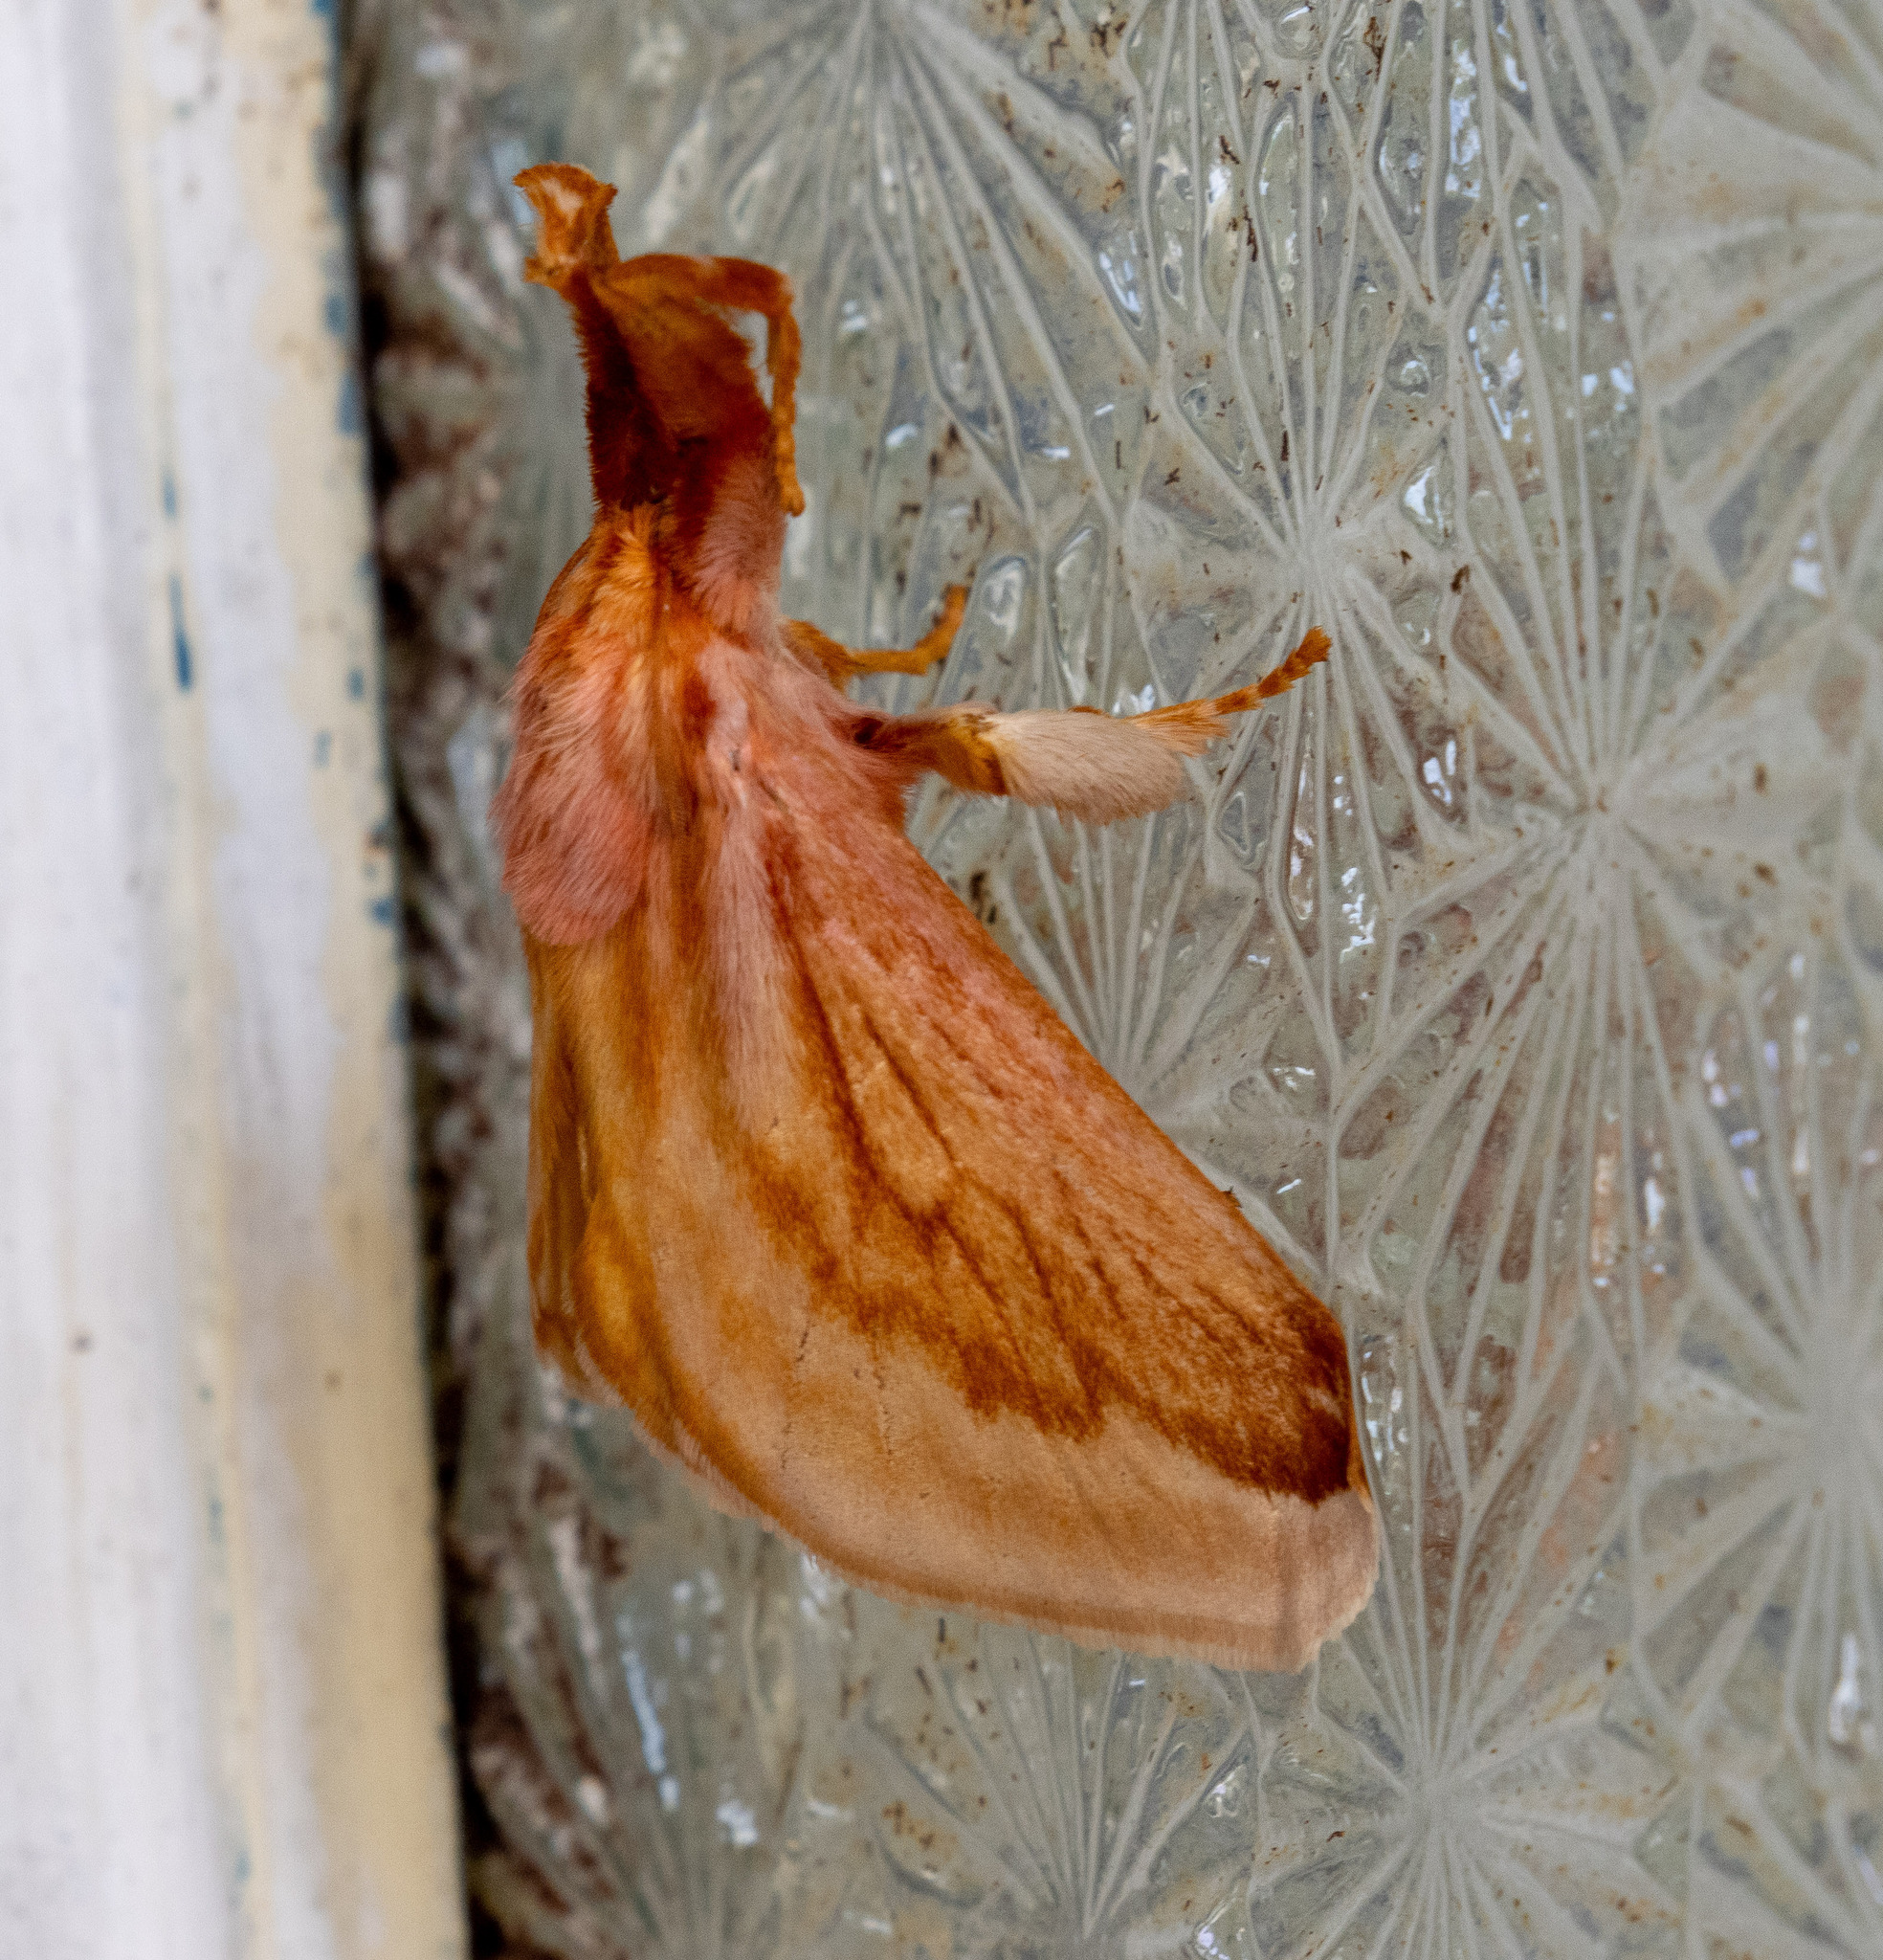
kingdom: Animalia
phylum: Arthropoda
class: Insecta
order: Lepidoptera
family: Limacodidae
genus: Perola
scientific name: Perola villosipes
